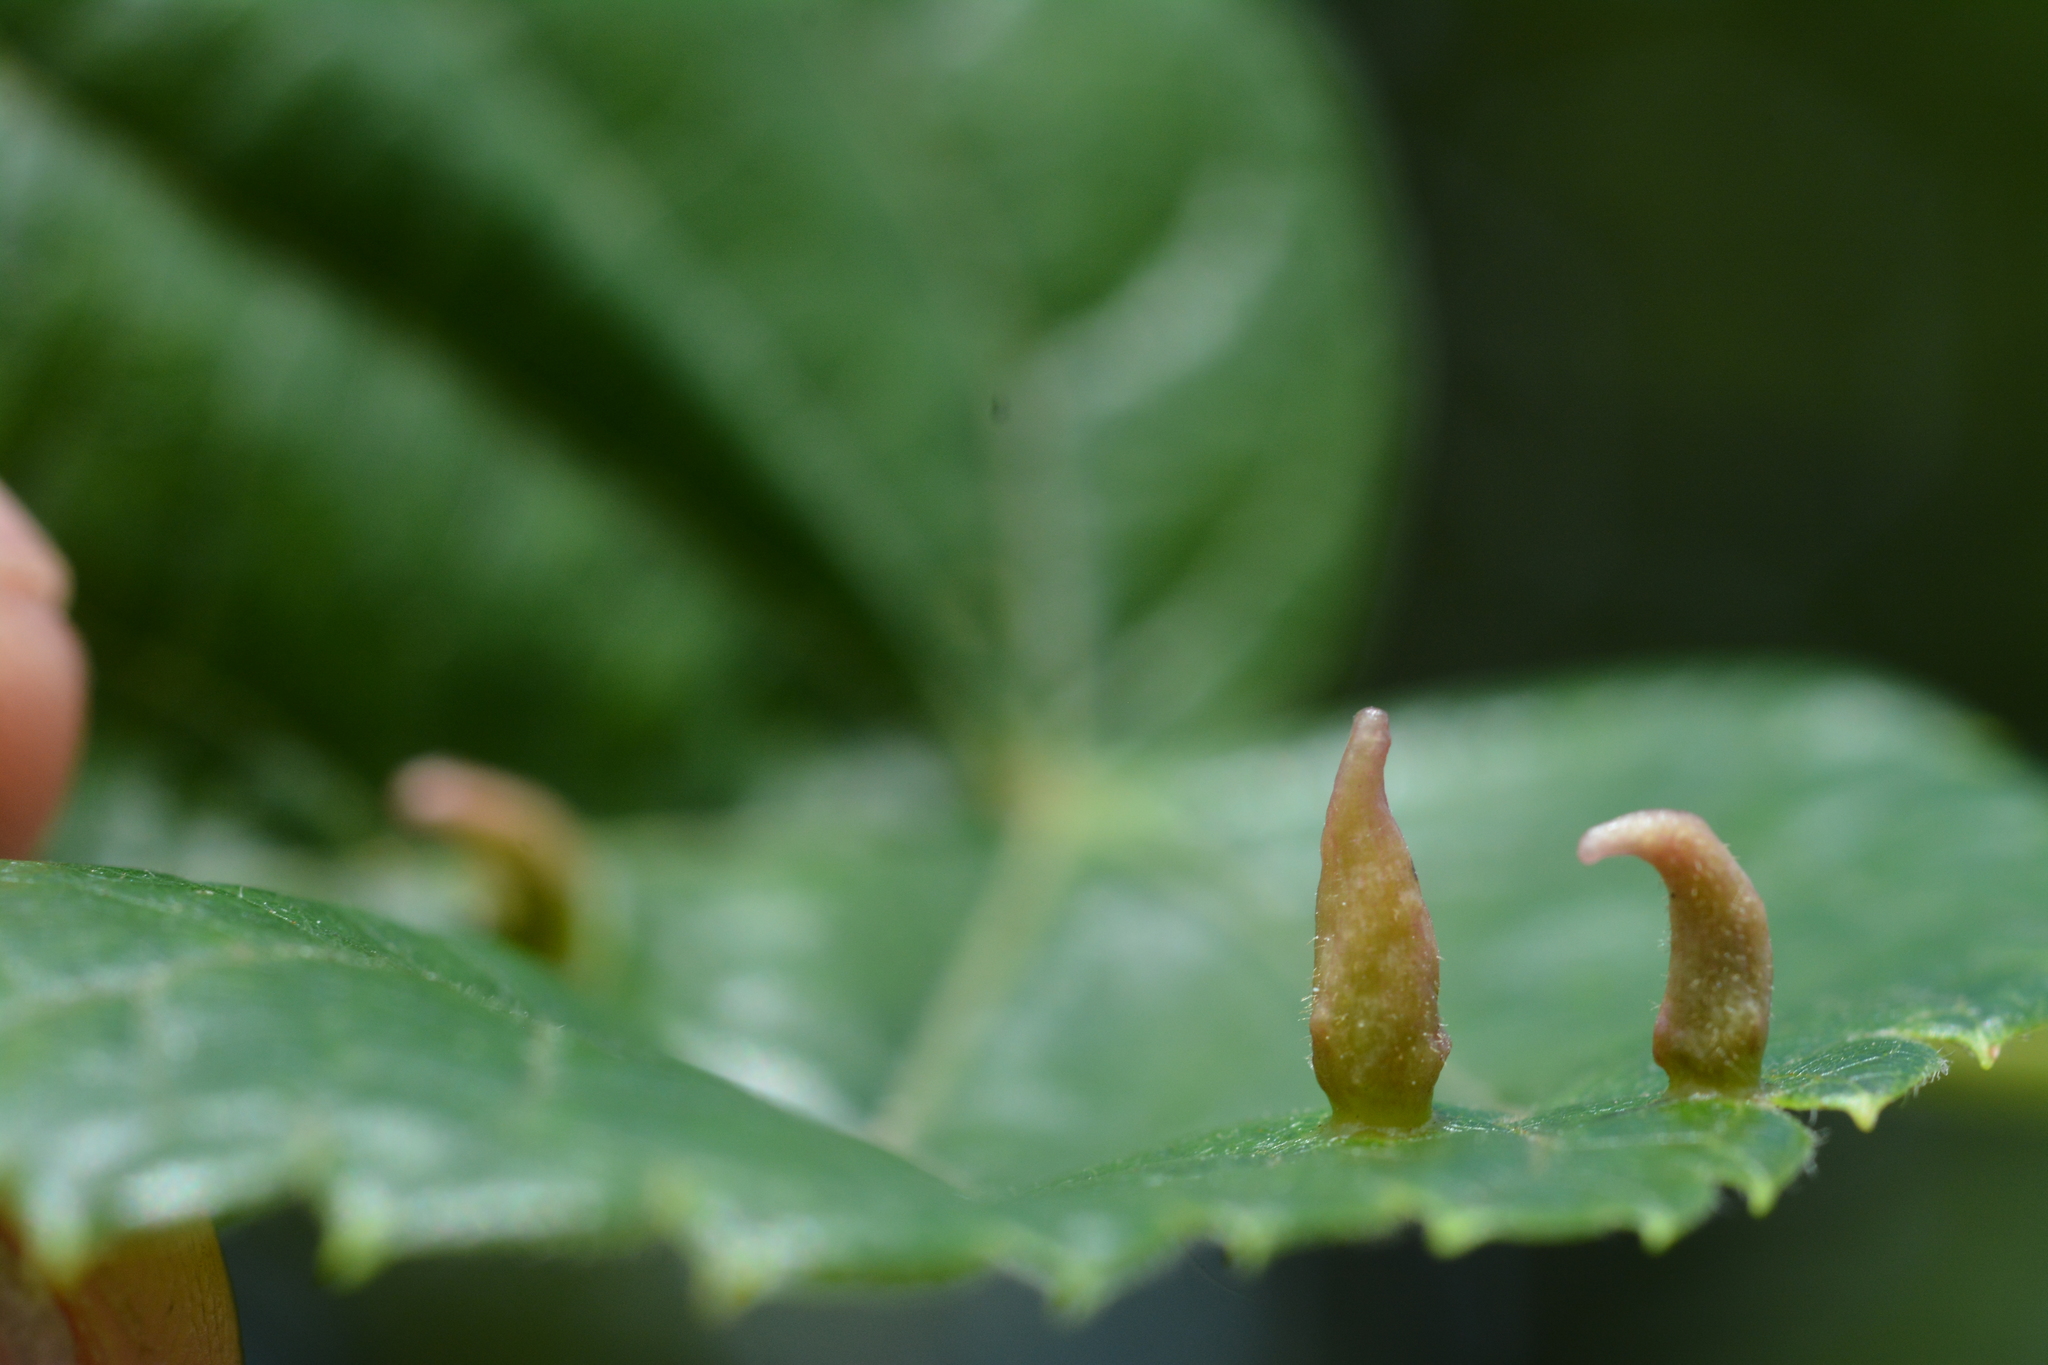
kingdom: Animalia
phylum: Arthropoda
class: Arachnida
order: Trombidiformes
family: Eriophyidae
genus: Eriophyes
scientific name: Eriophyes tiliae
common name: Red nail gall mite
